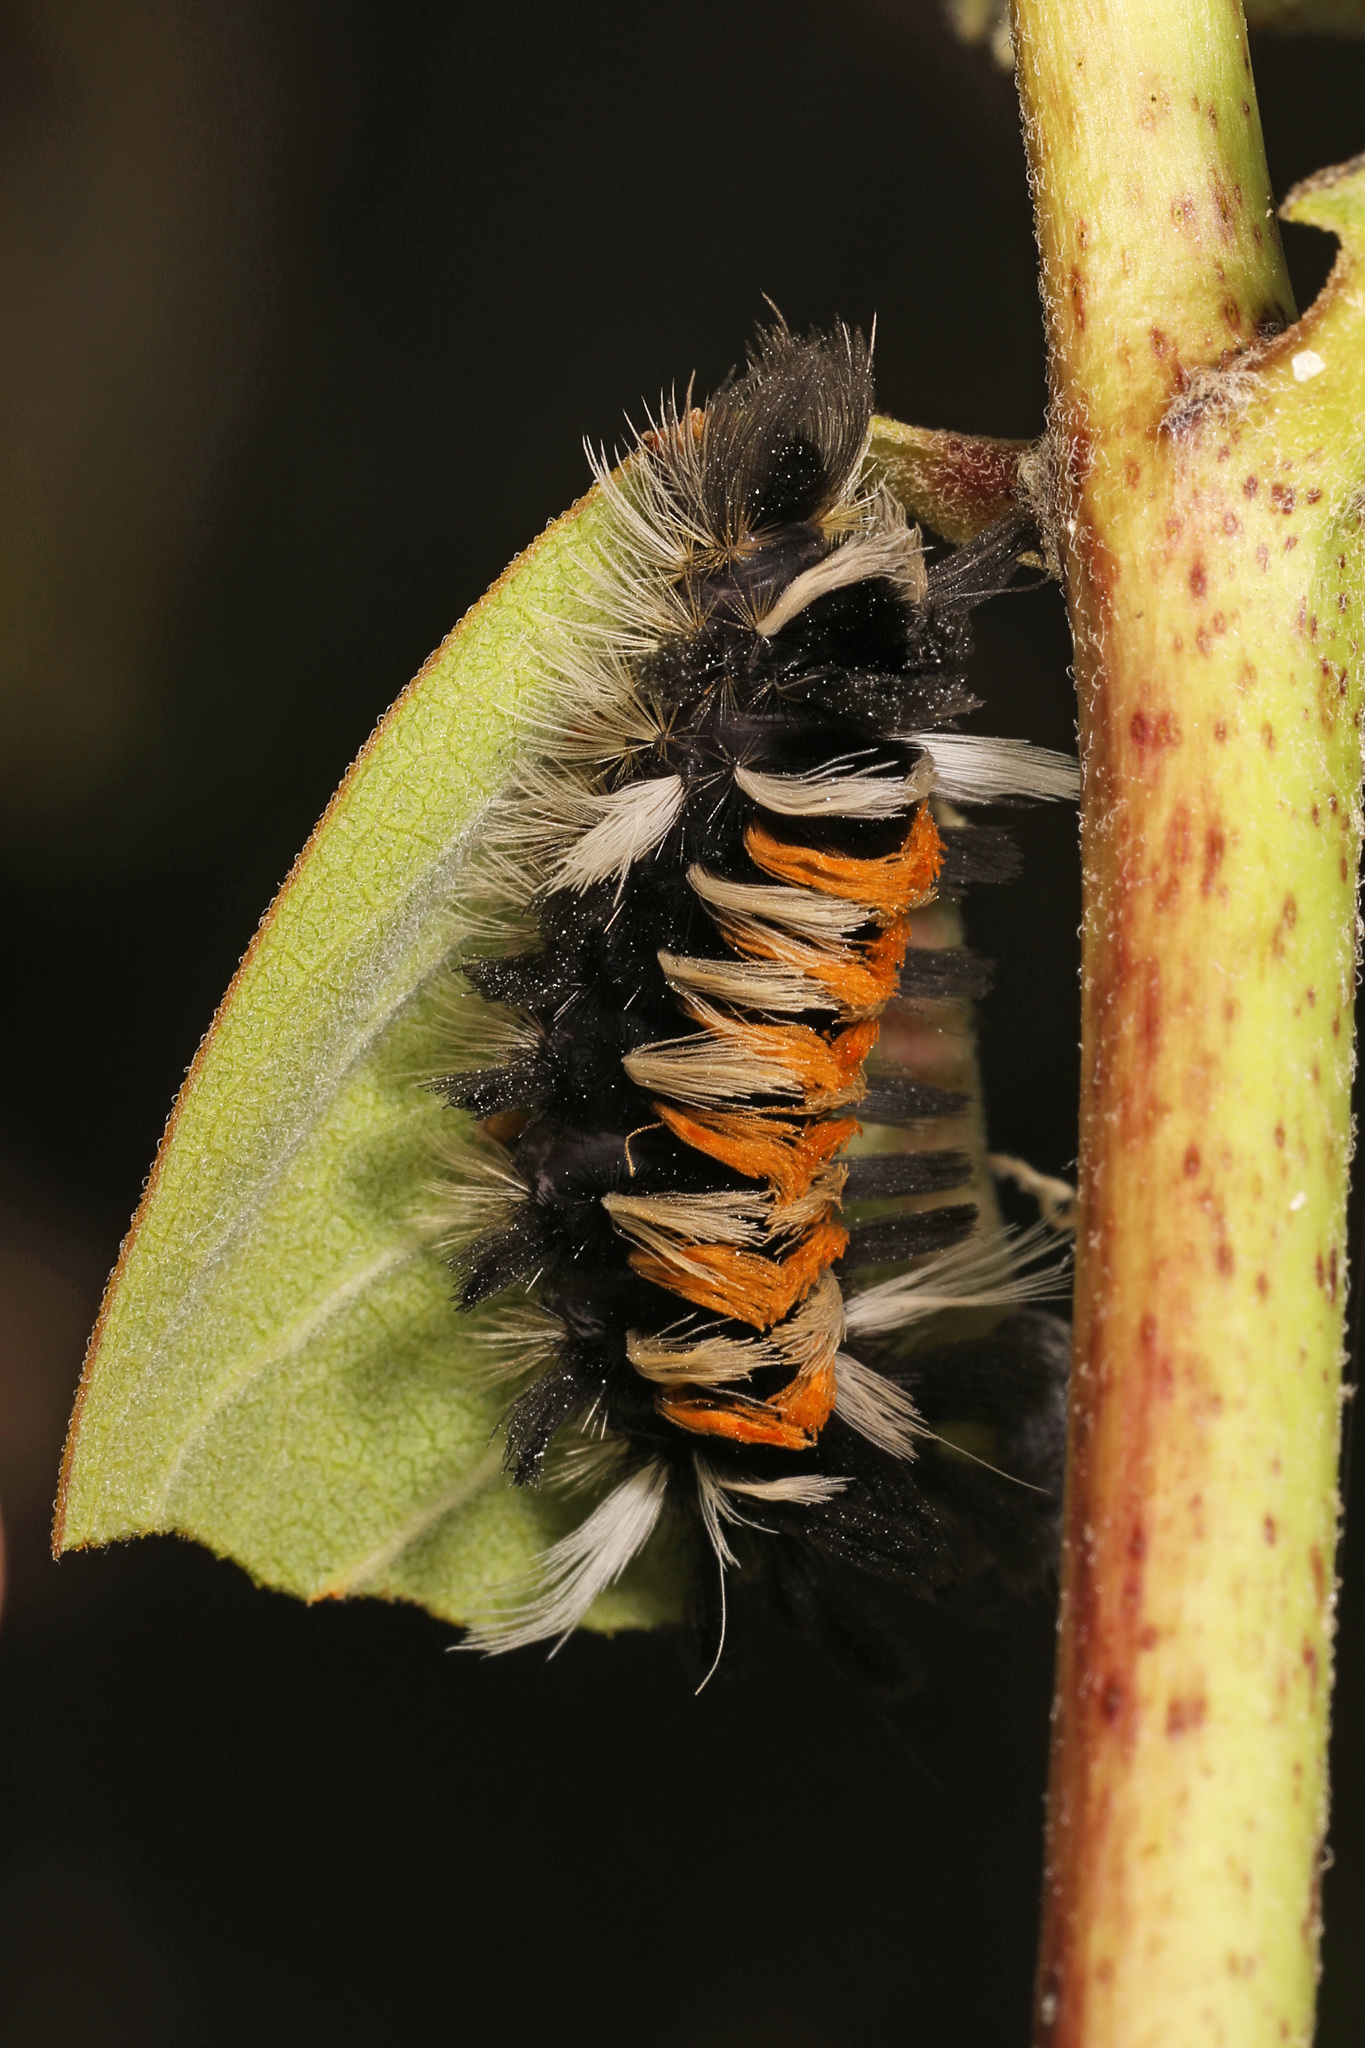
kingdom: Animalia
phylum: Arthropoda
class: Insecta
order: Lepidoptera
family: Erebidae
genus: Euchaetes
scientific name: Euchaetes egle
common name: Milkweed tussock moth
